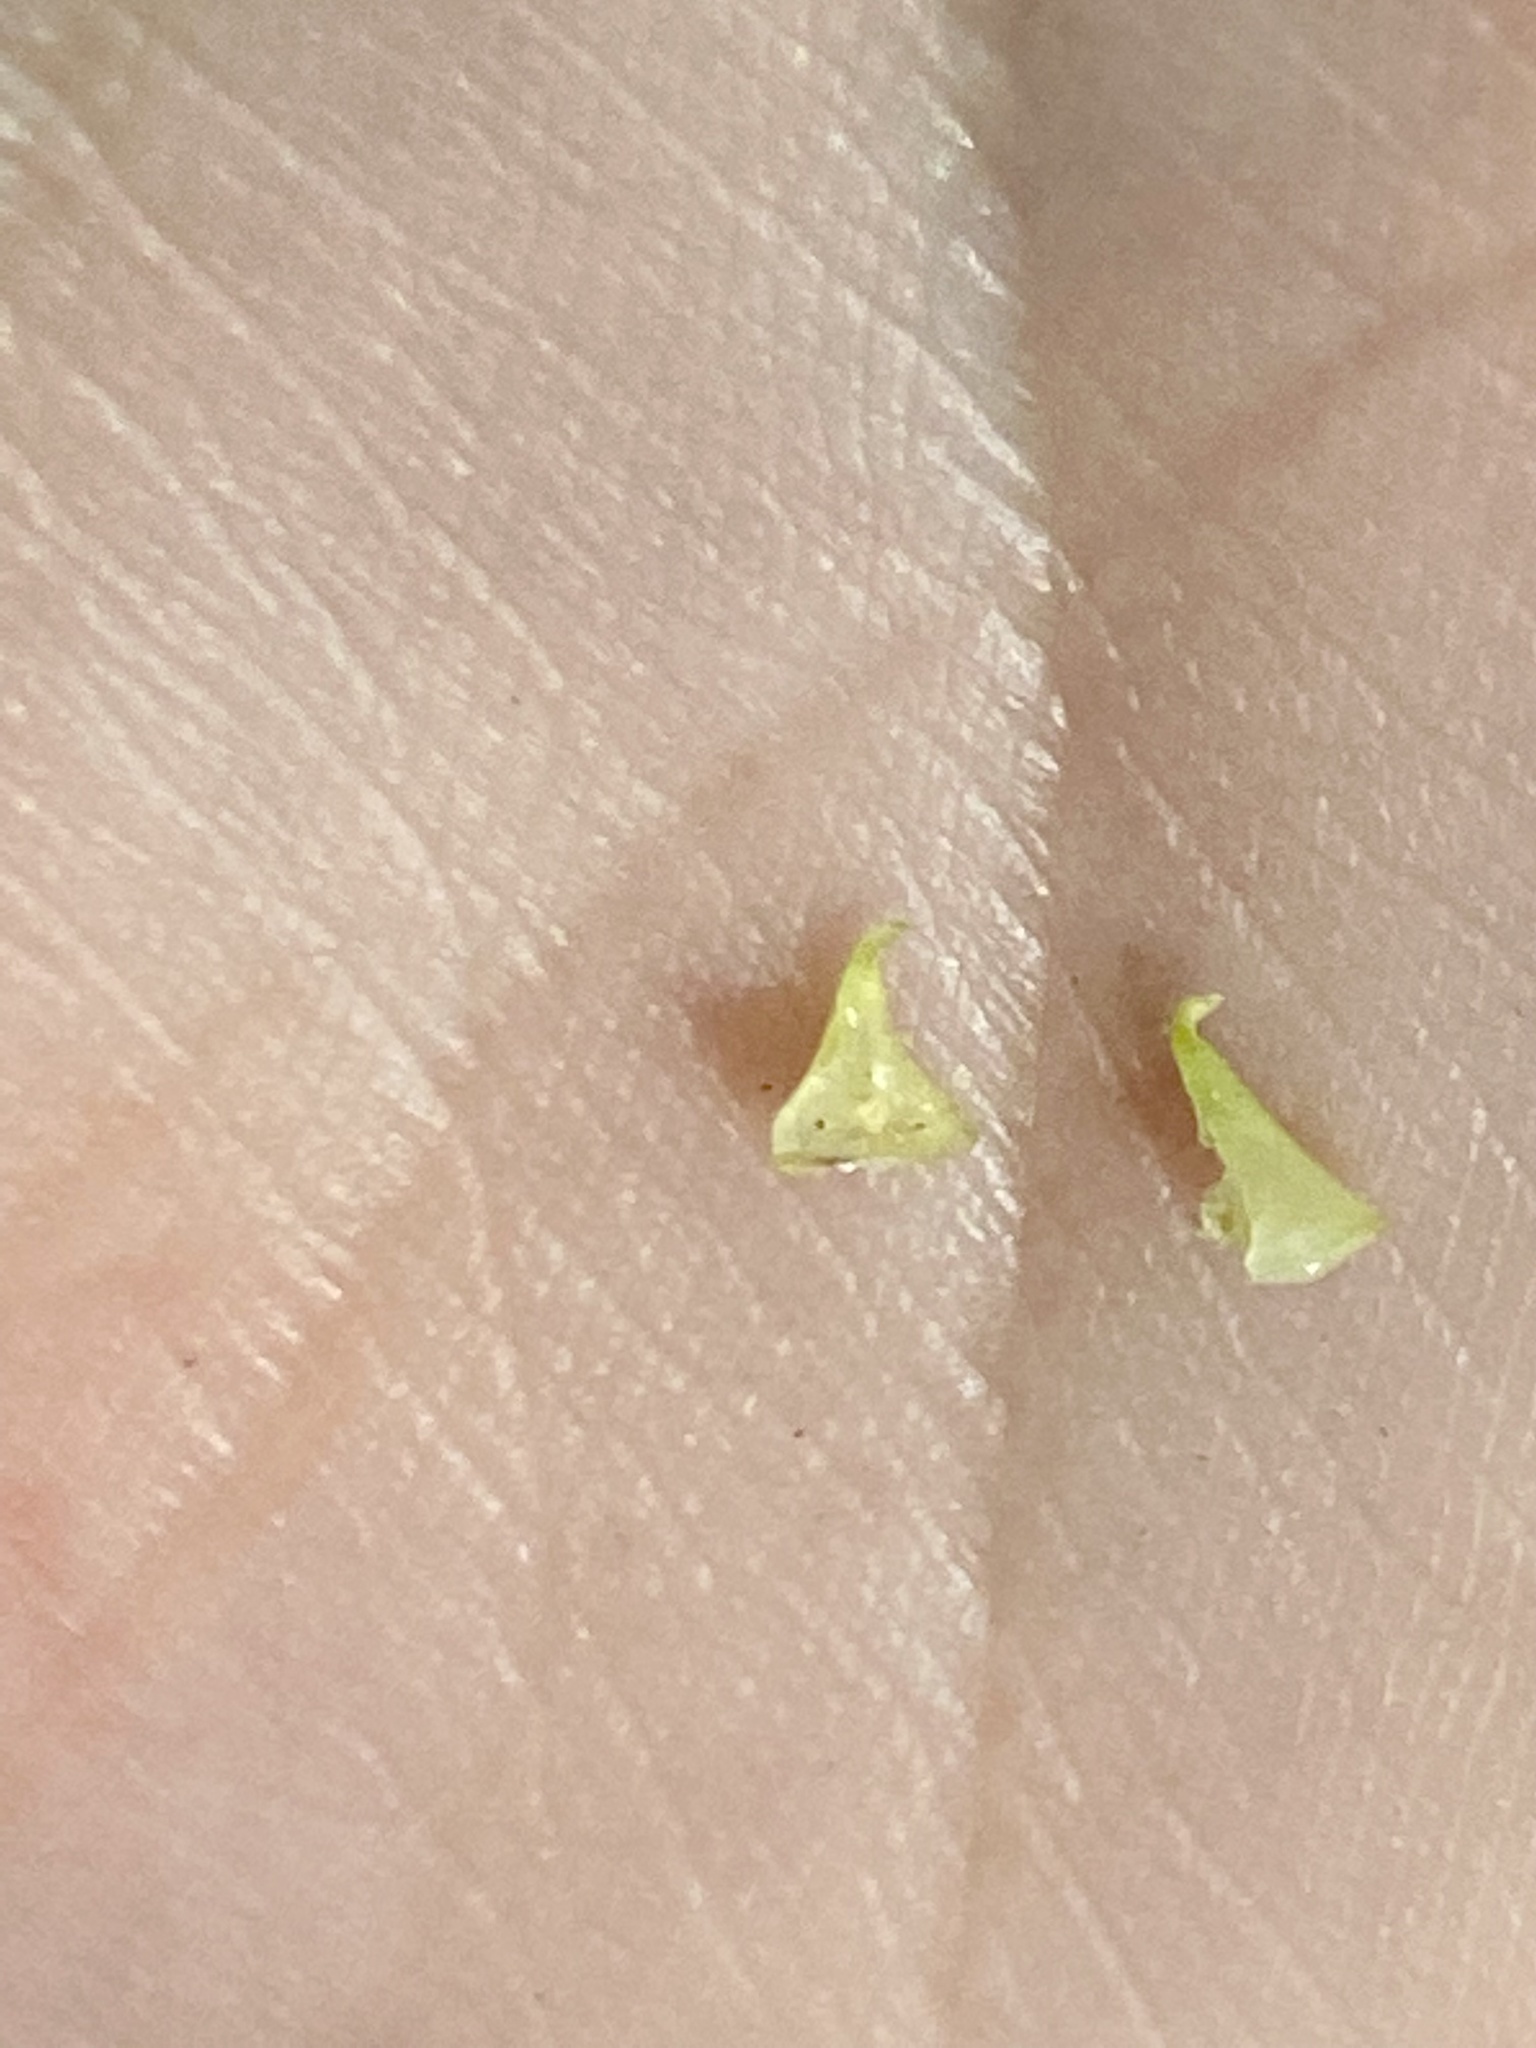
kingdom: Animalia
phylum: Arthropoda
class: Insecta
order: Diptera
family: Cecidomyiidae
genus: Caryomyia
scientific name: Caryomyia sanguinolenta
